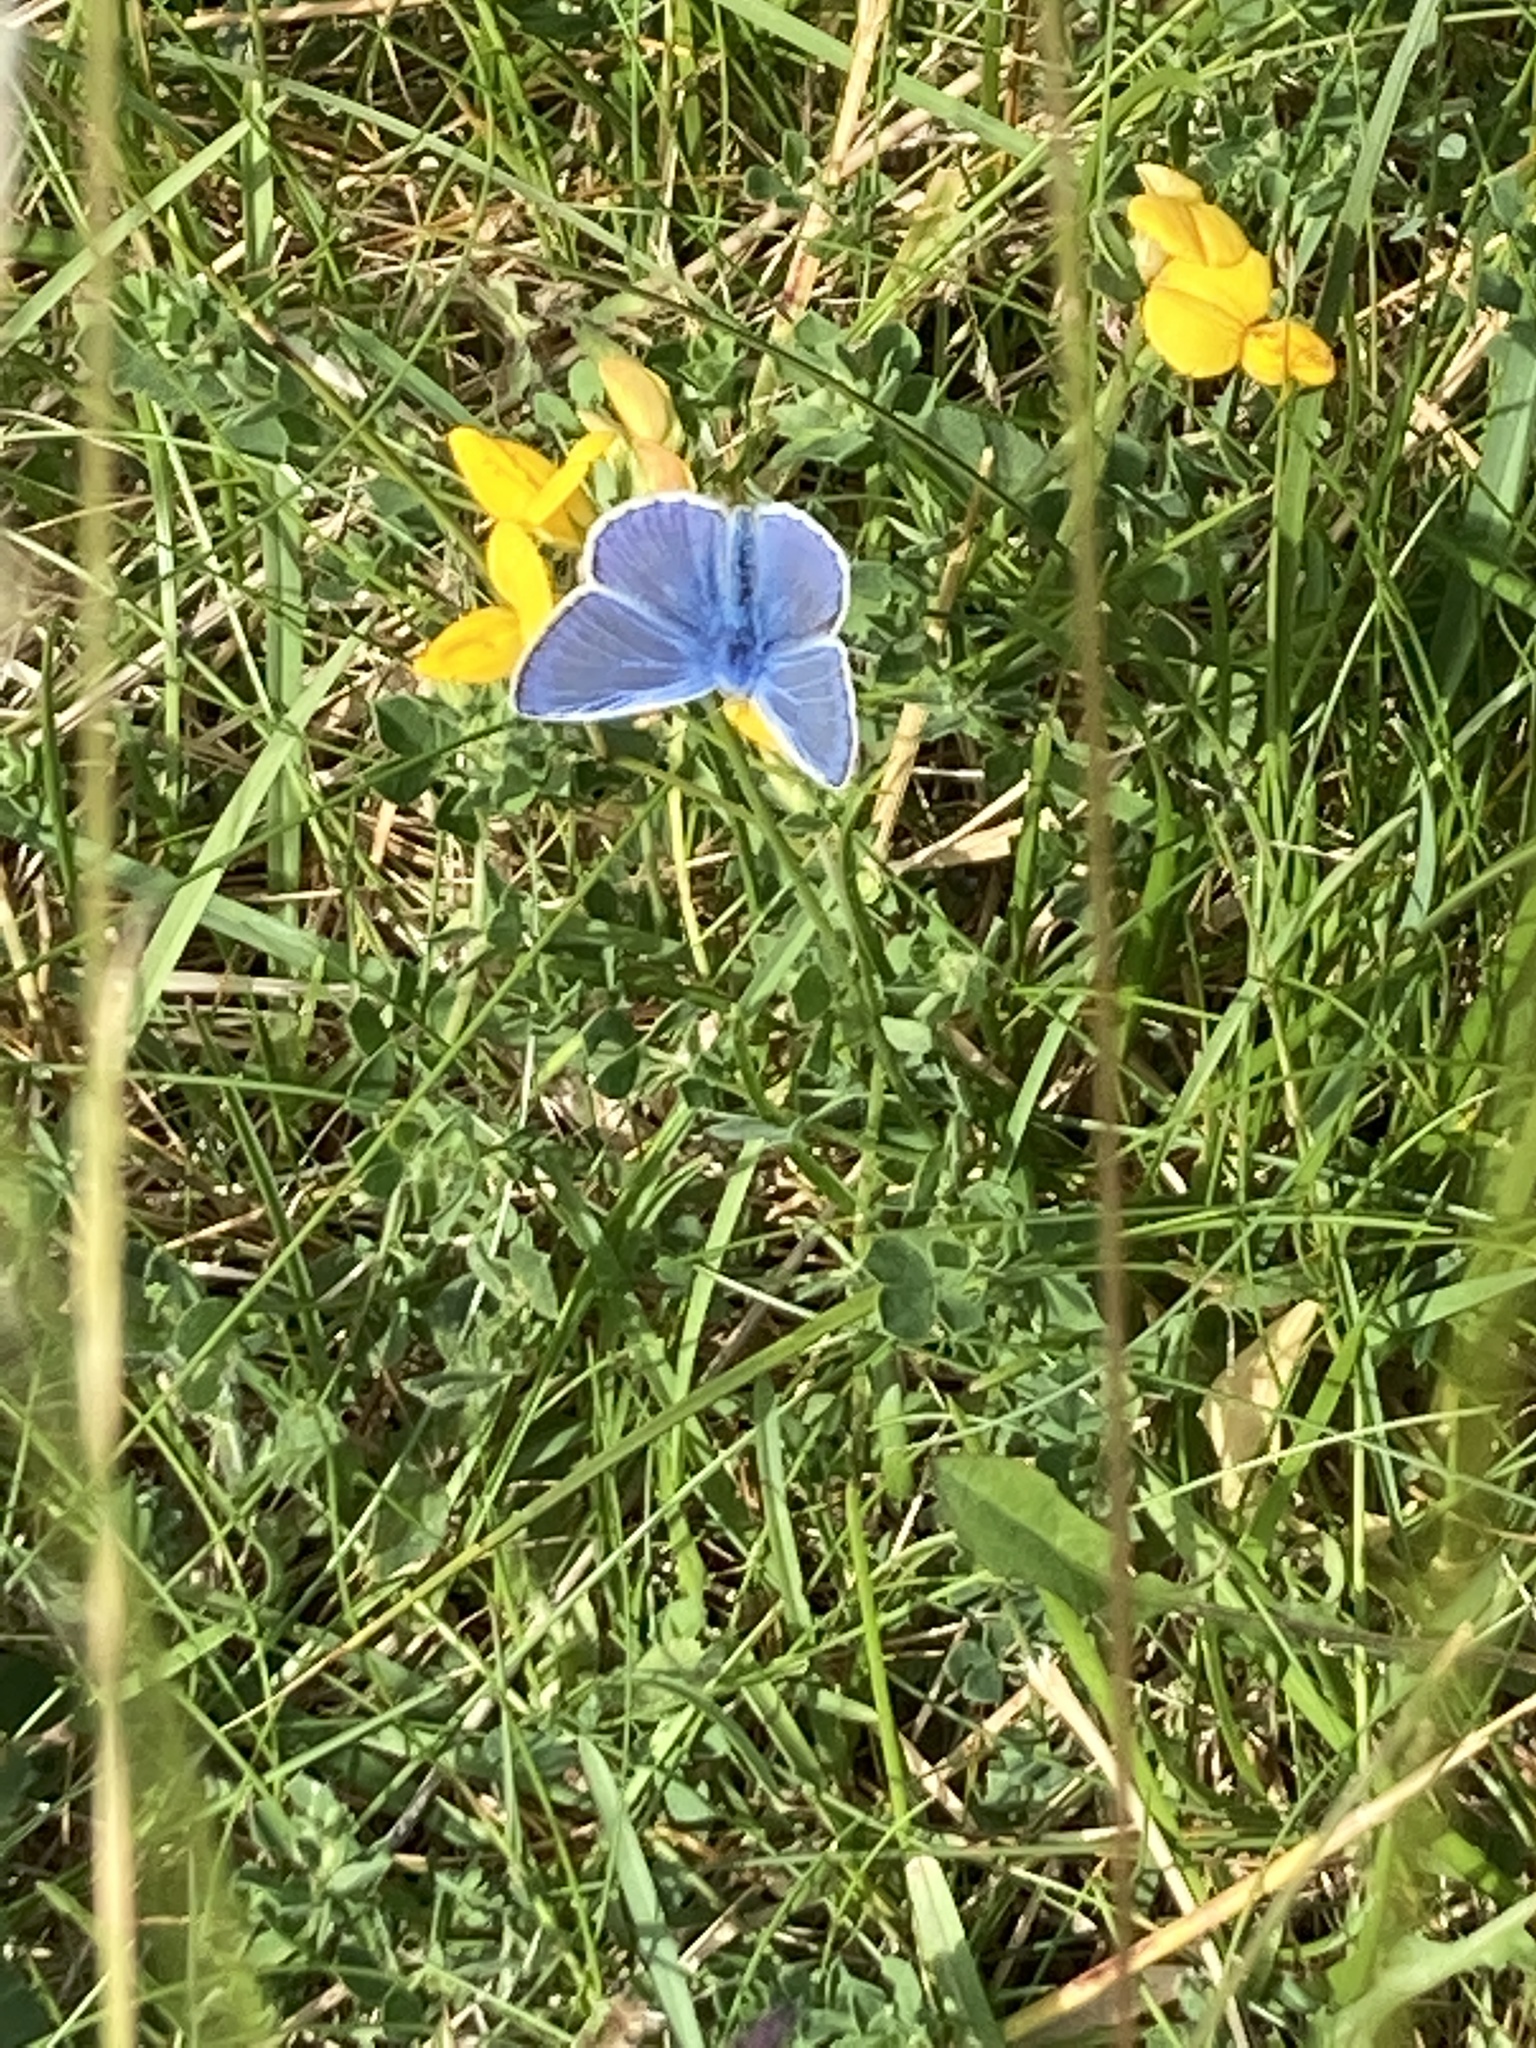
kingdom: Animalia
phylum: Arthropoda
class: Insecta
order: Lepidoptera
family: Lycaenidae
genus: Polyommatus
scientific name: Polyommatus icarus
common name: Common blue
